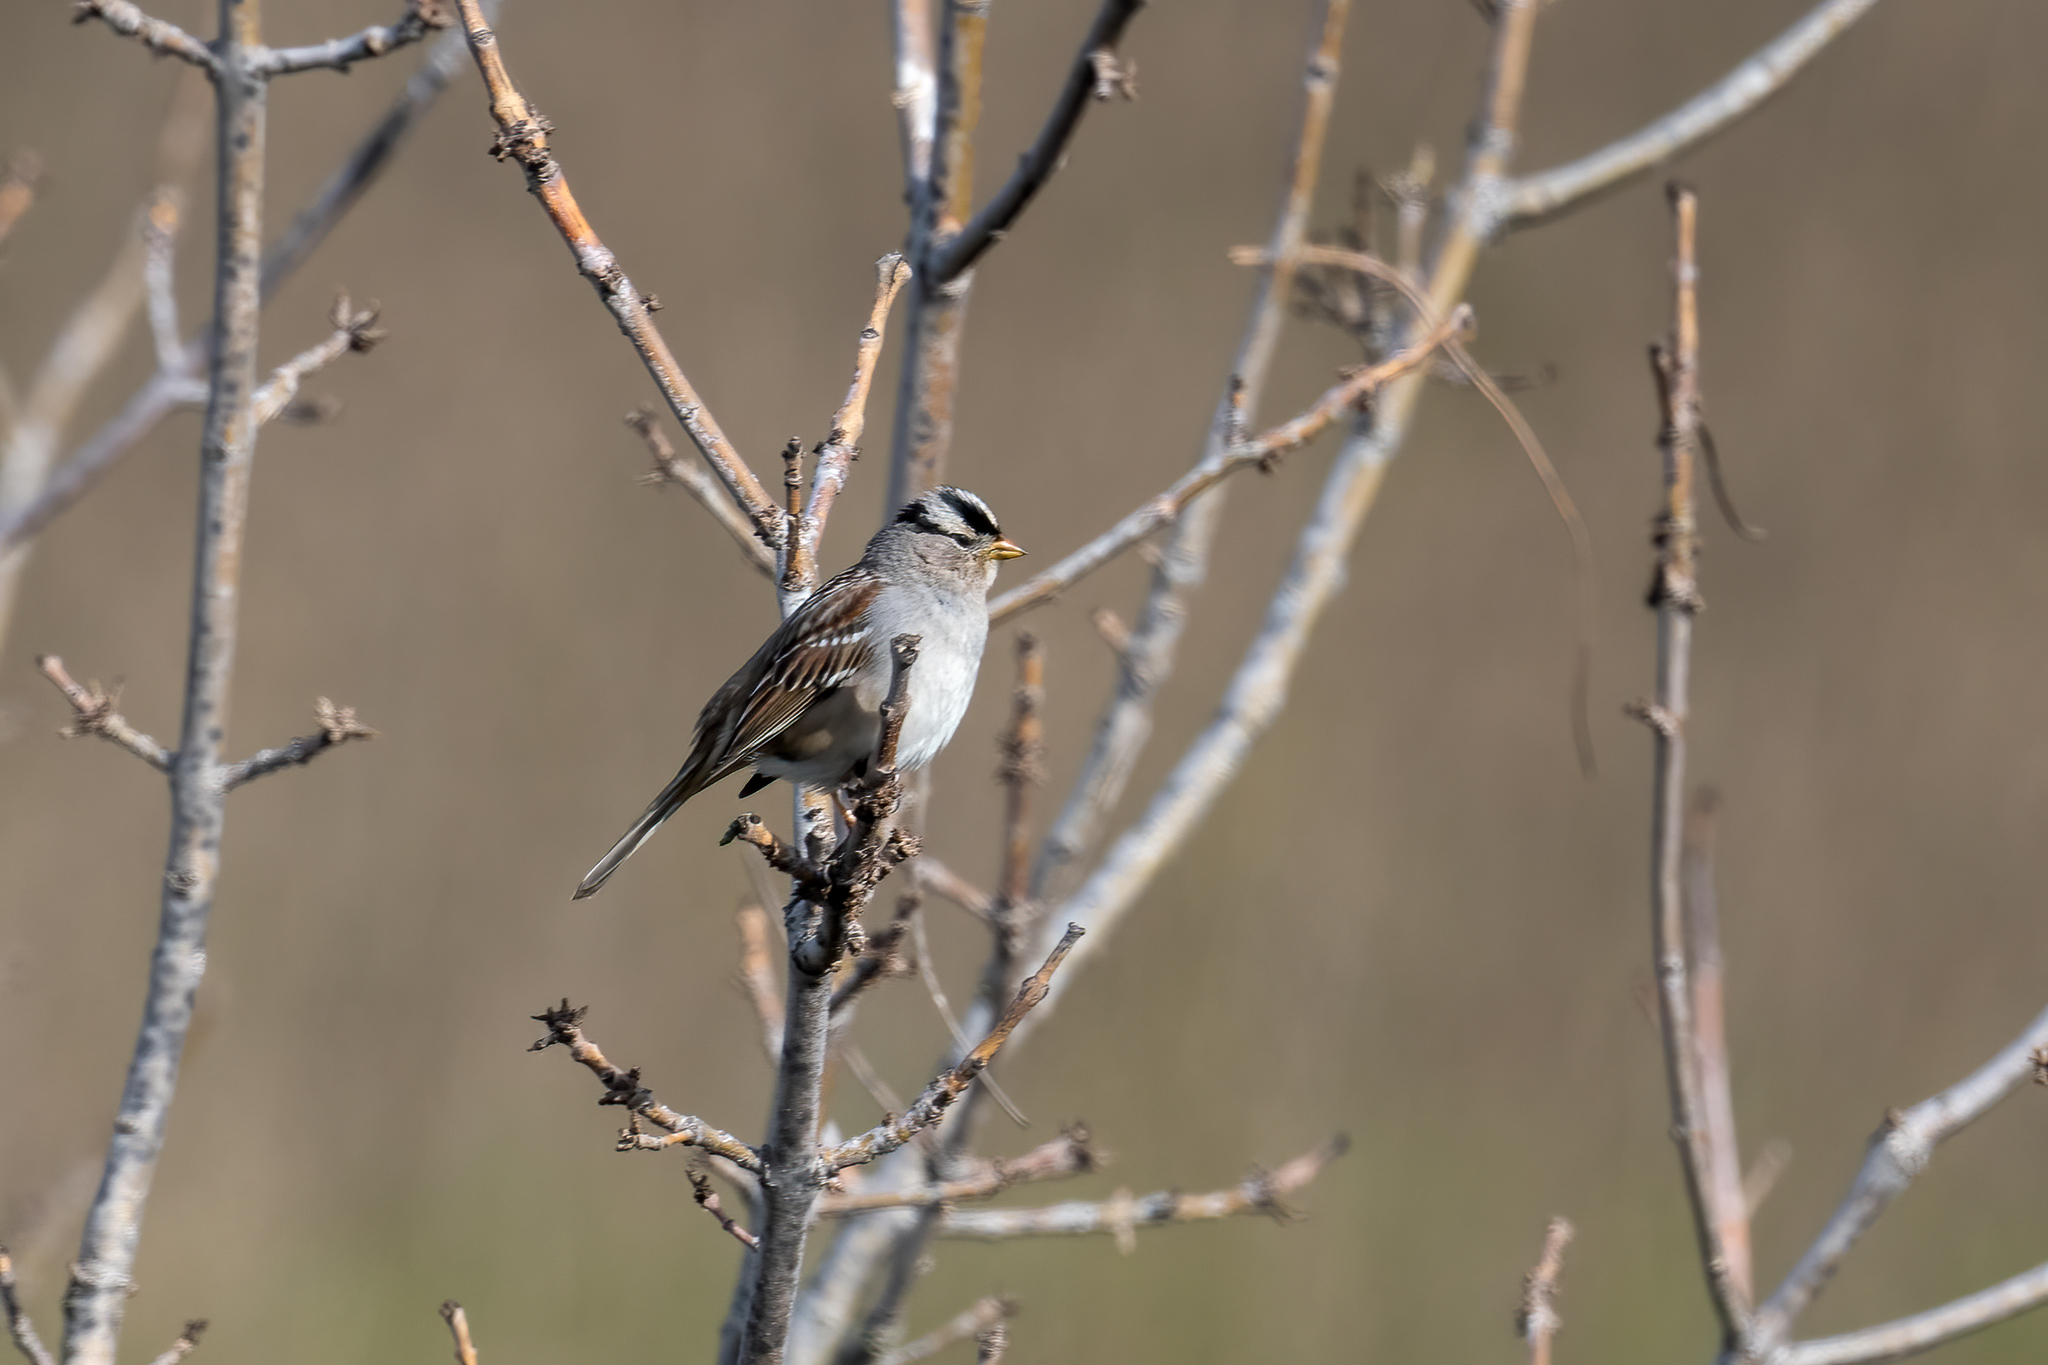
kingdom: Animalia
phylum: Chordata
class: Aves
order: Passeriformes
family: Passerellidae
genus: Zonotrichia
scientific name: Zonotrichia leucophrys
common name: White-crowned sparrow
